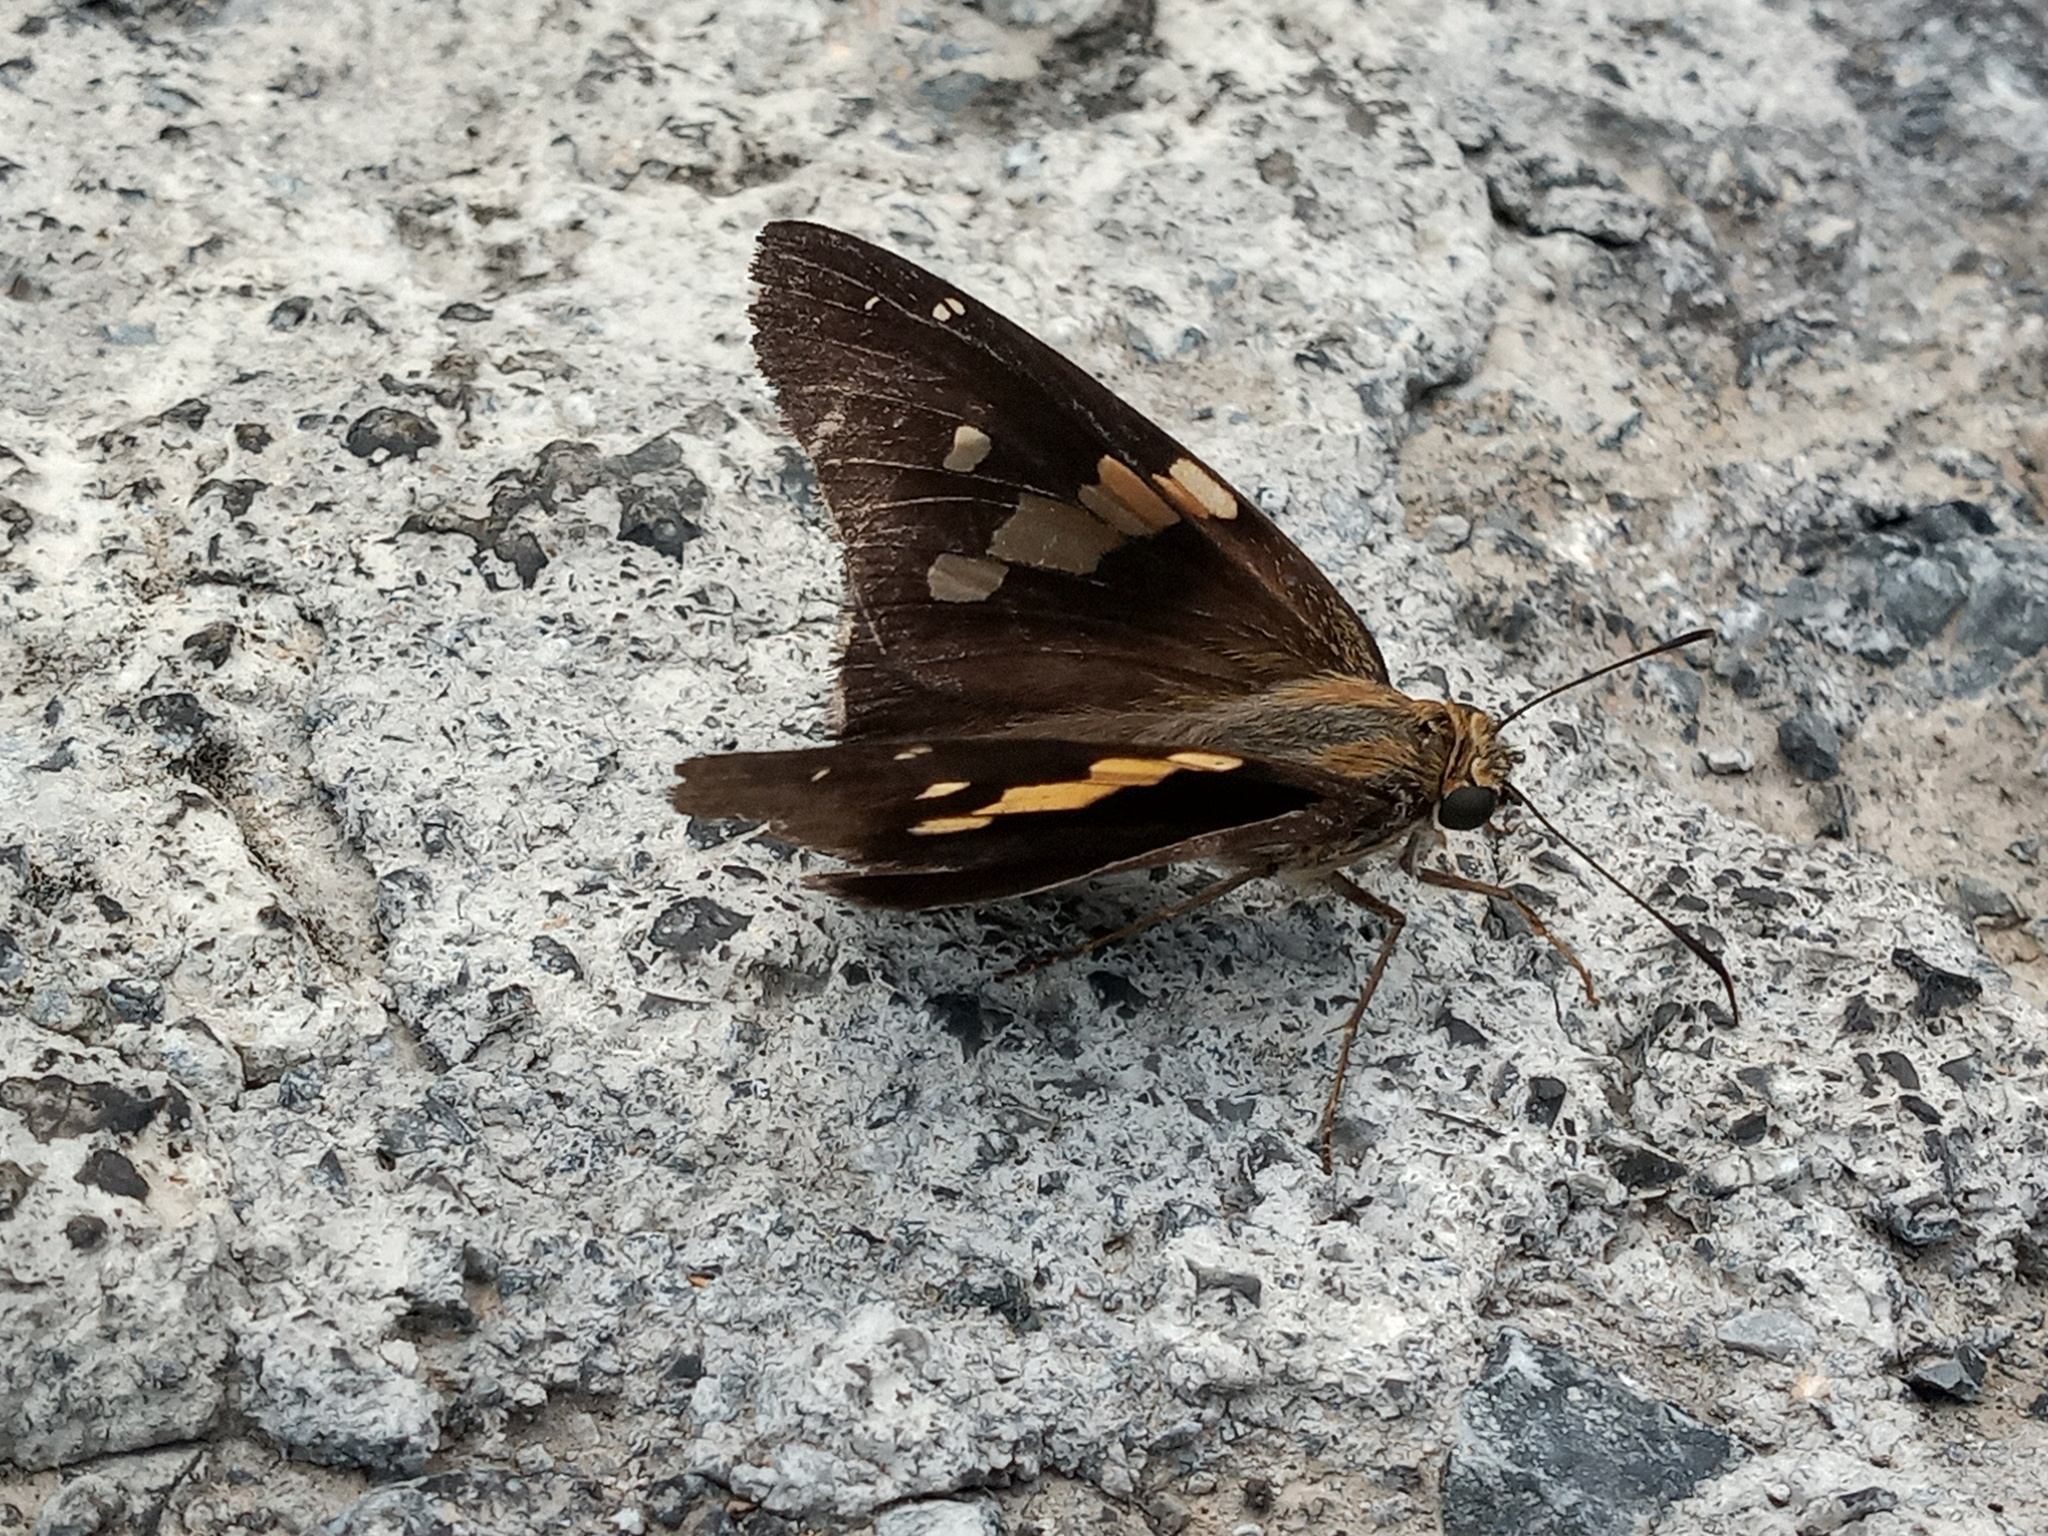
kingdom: Animalia
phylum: Arthropoda
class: Insecta
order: Lepidoptera
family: Hesperiidae
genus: Epargyreus
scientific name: Epargyreus clarus
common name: Silver-spotted skipper
